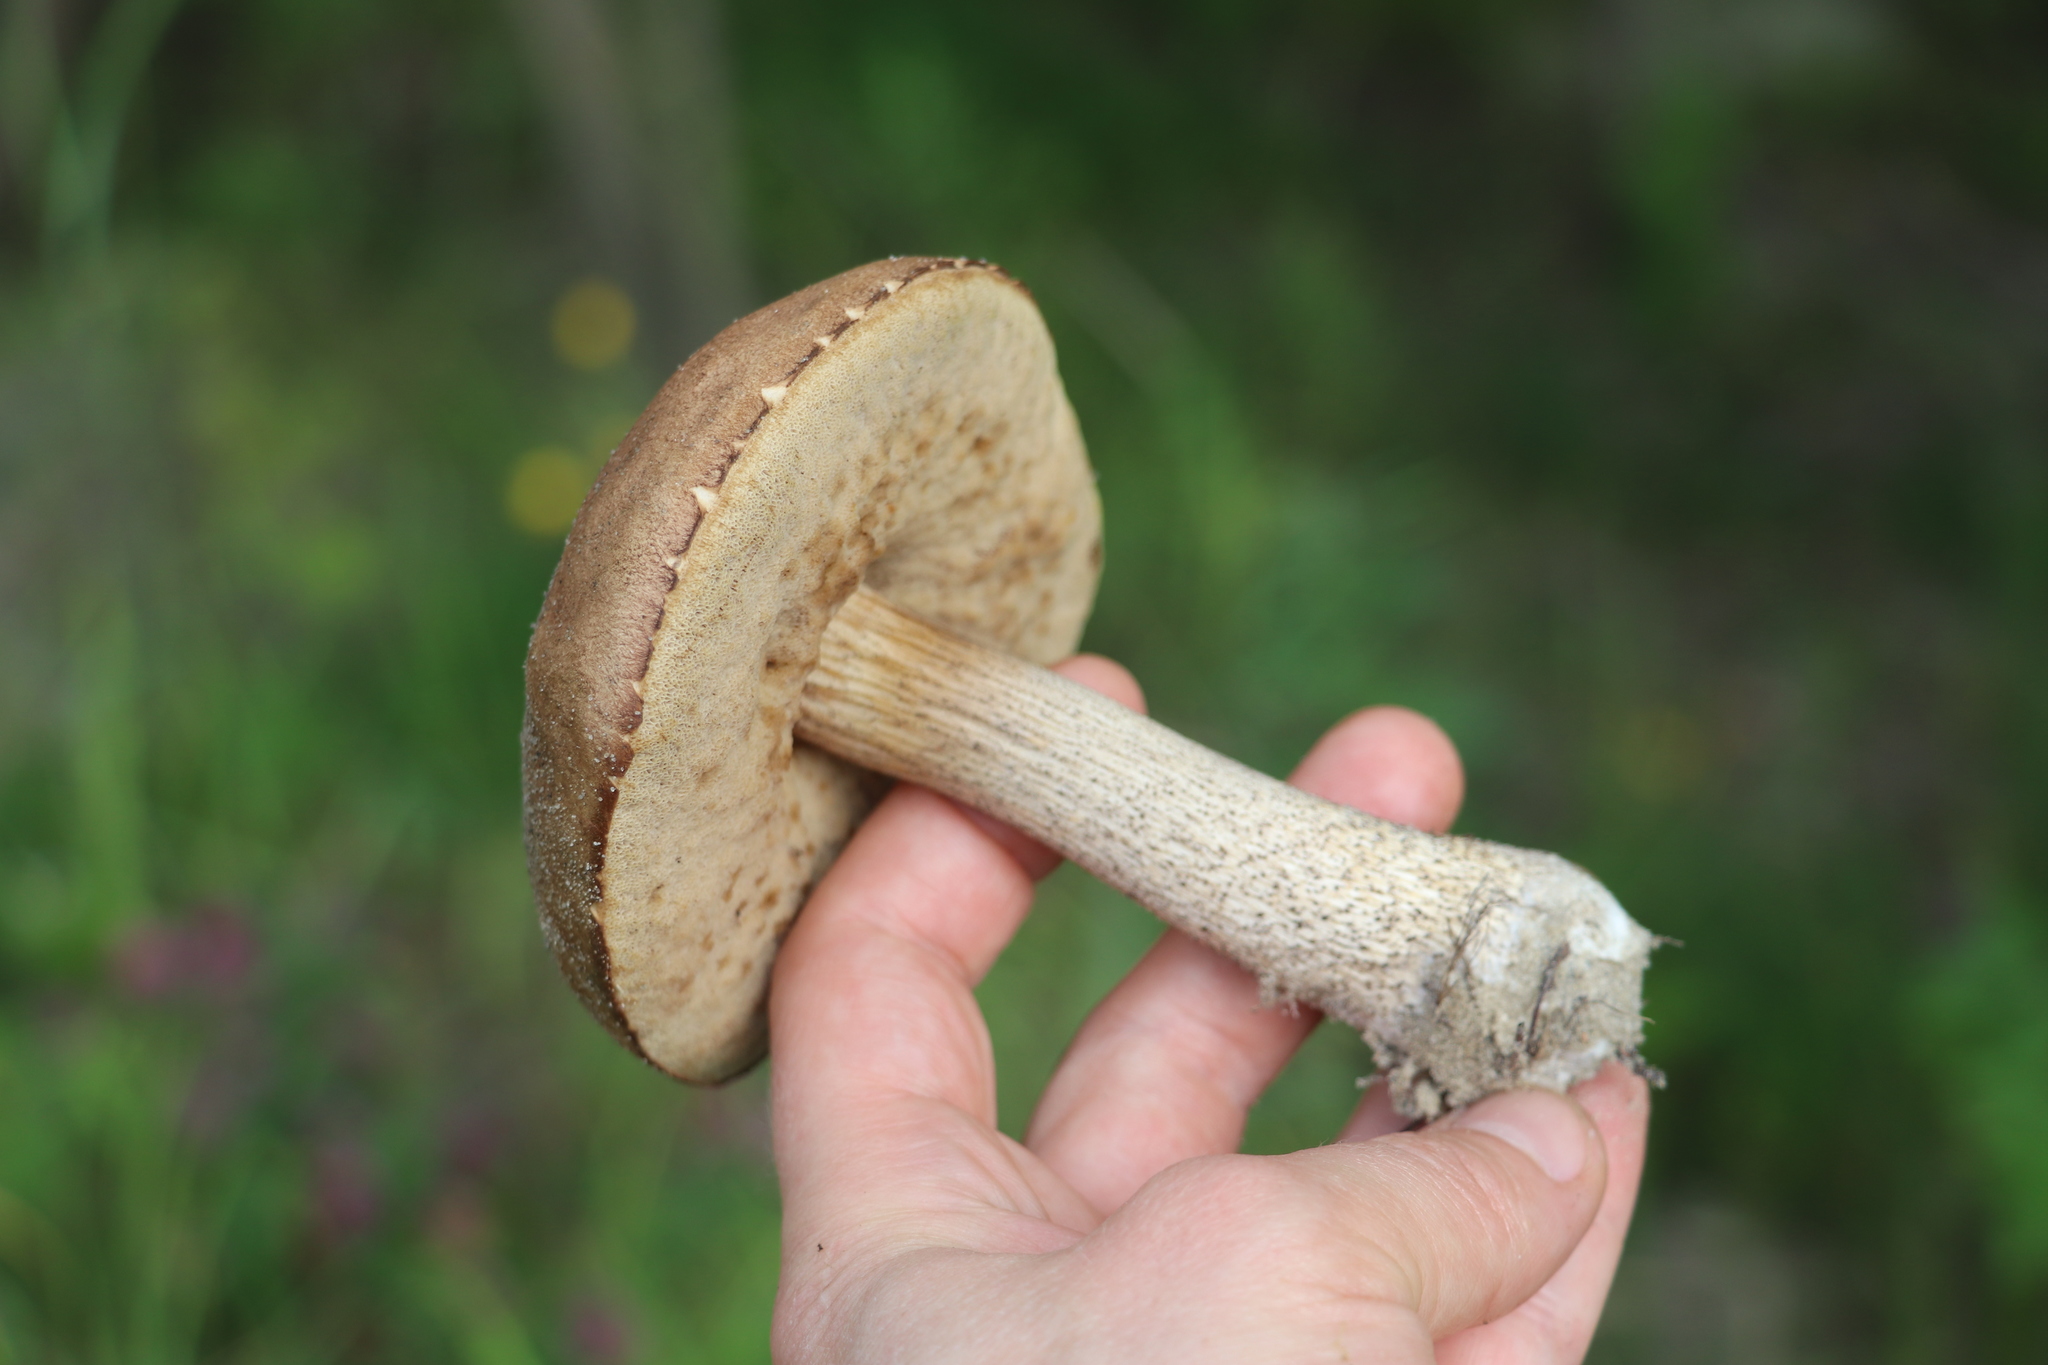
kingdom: Fungi
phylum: Basidiomycota
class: Agaricomycetes
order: Boletales
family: Boletaceae
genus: Leccinum
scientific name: Leccinum scabrum
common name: Blushing bolete
